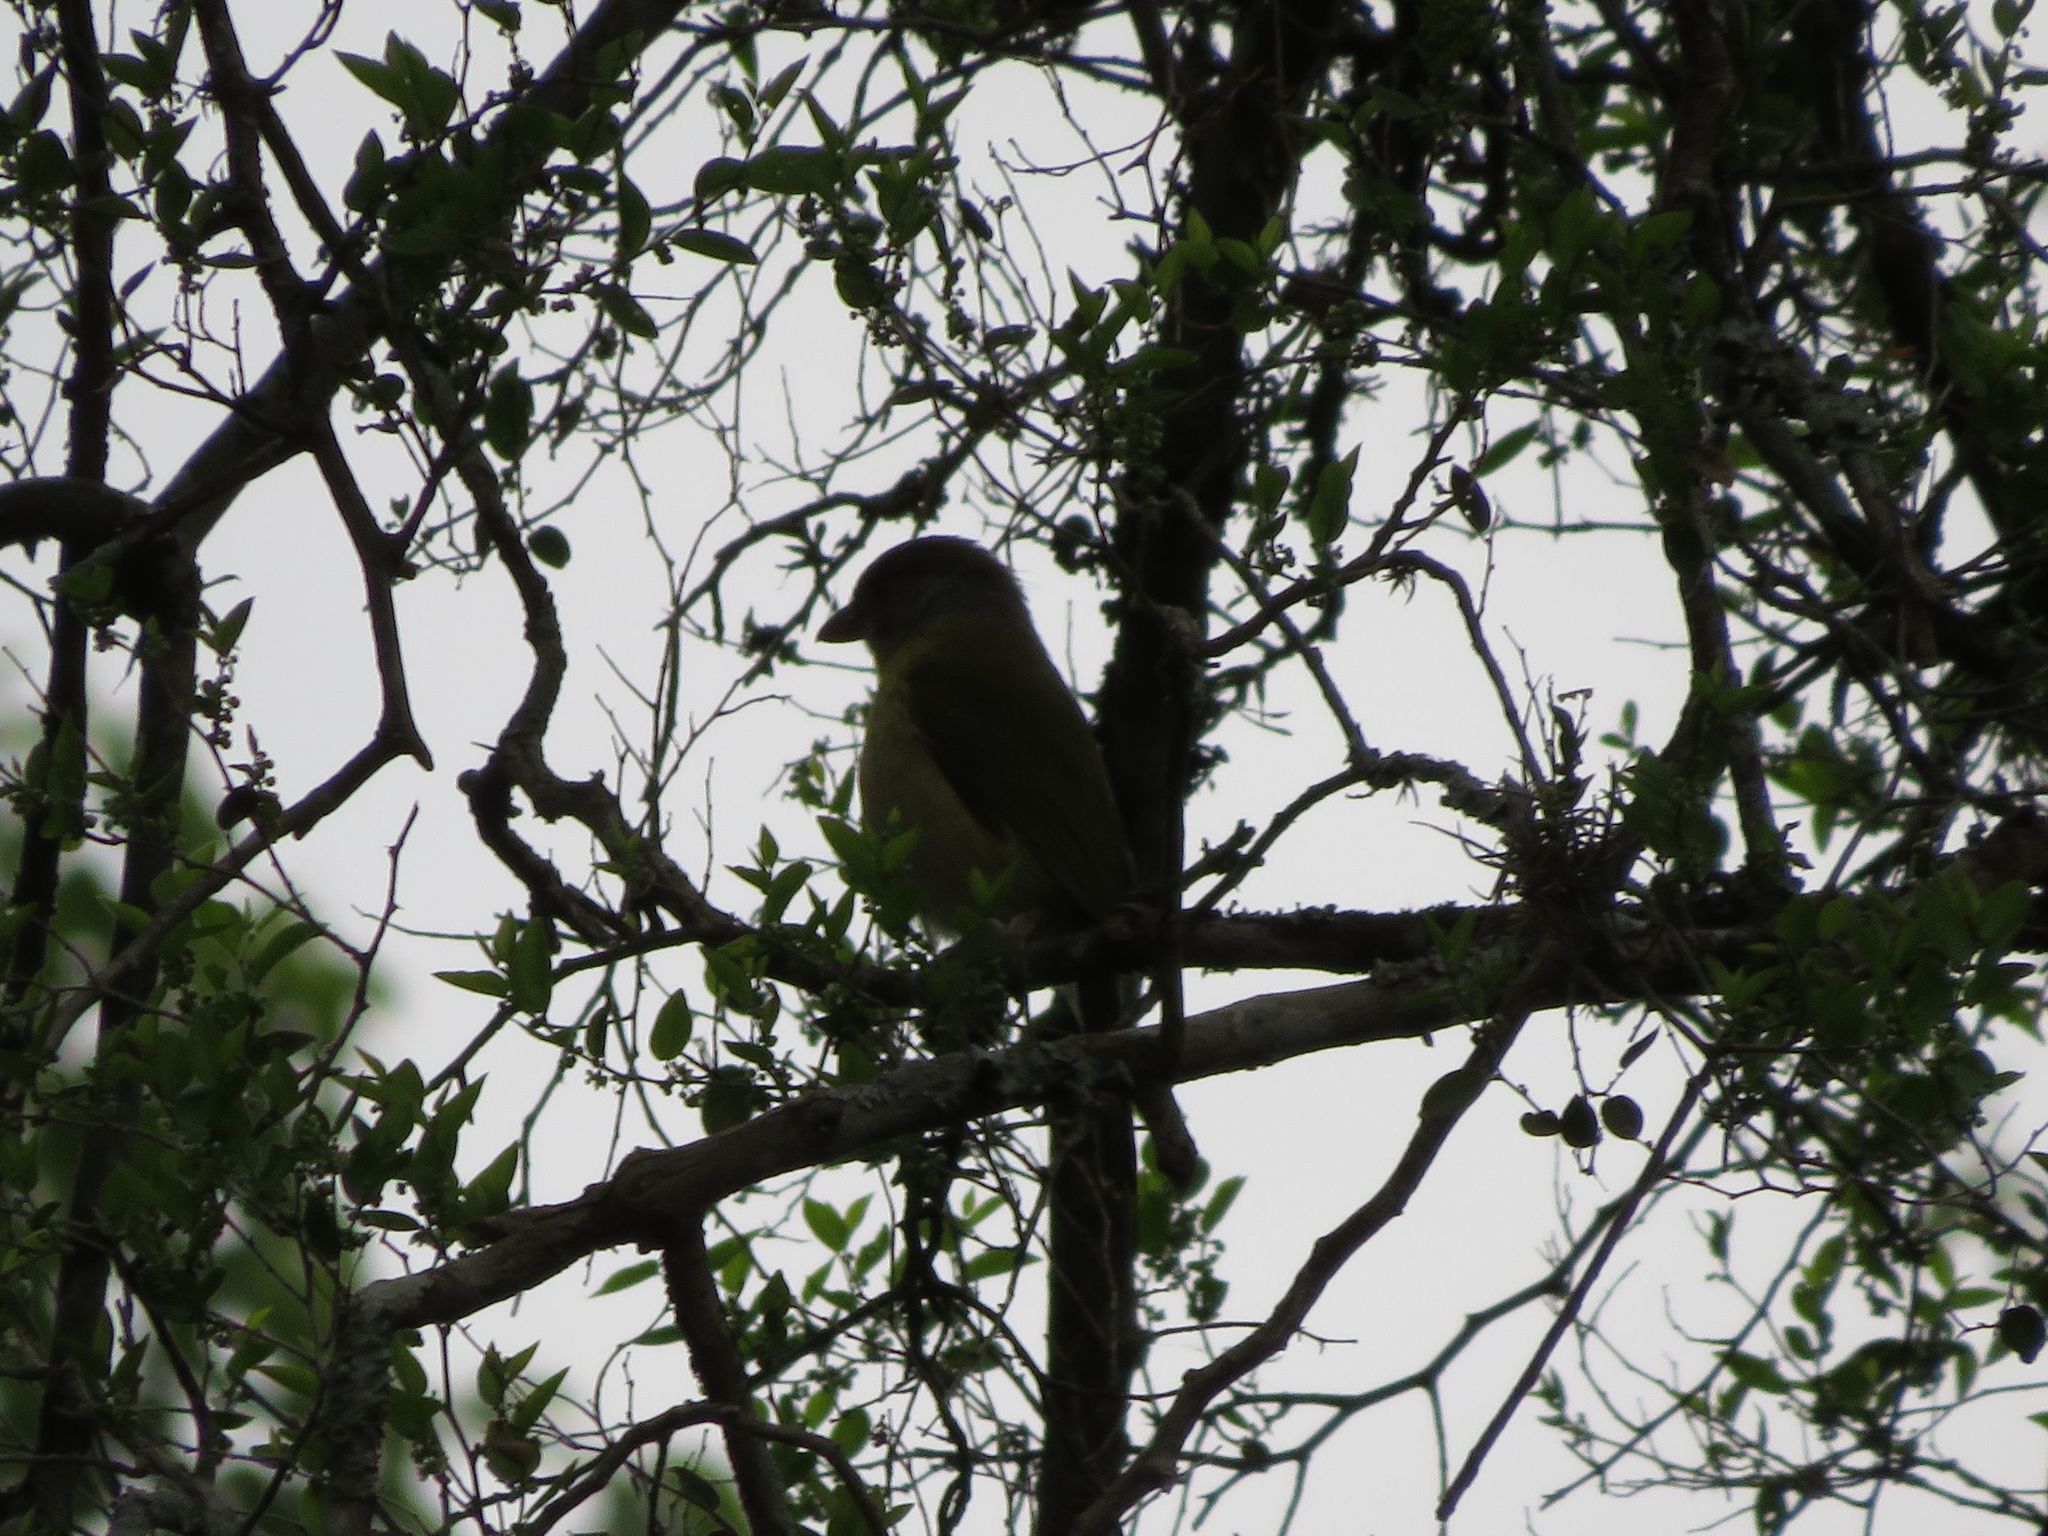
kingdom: Animalia
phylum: Chordata
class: Aves
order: Passeriformes
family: Vireonidae
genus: Cyclarhis
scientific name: Cyclarhis gujanensis
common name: Rufous-browed peppershrike
